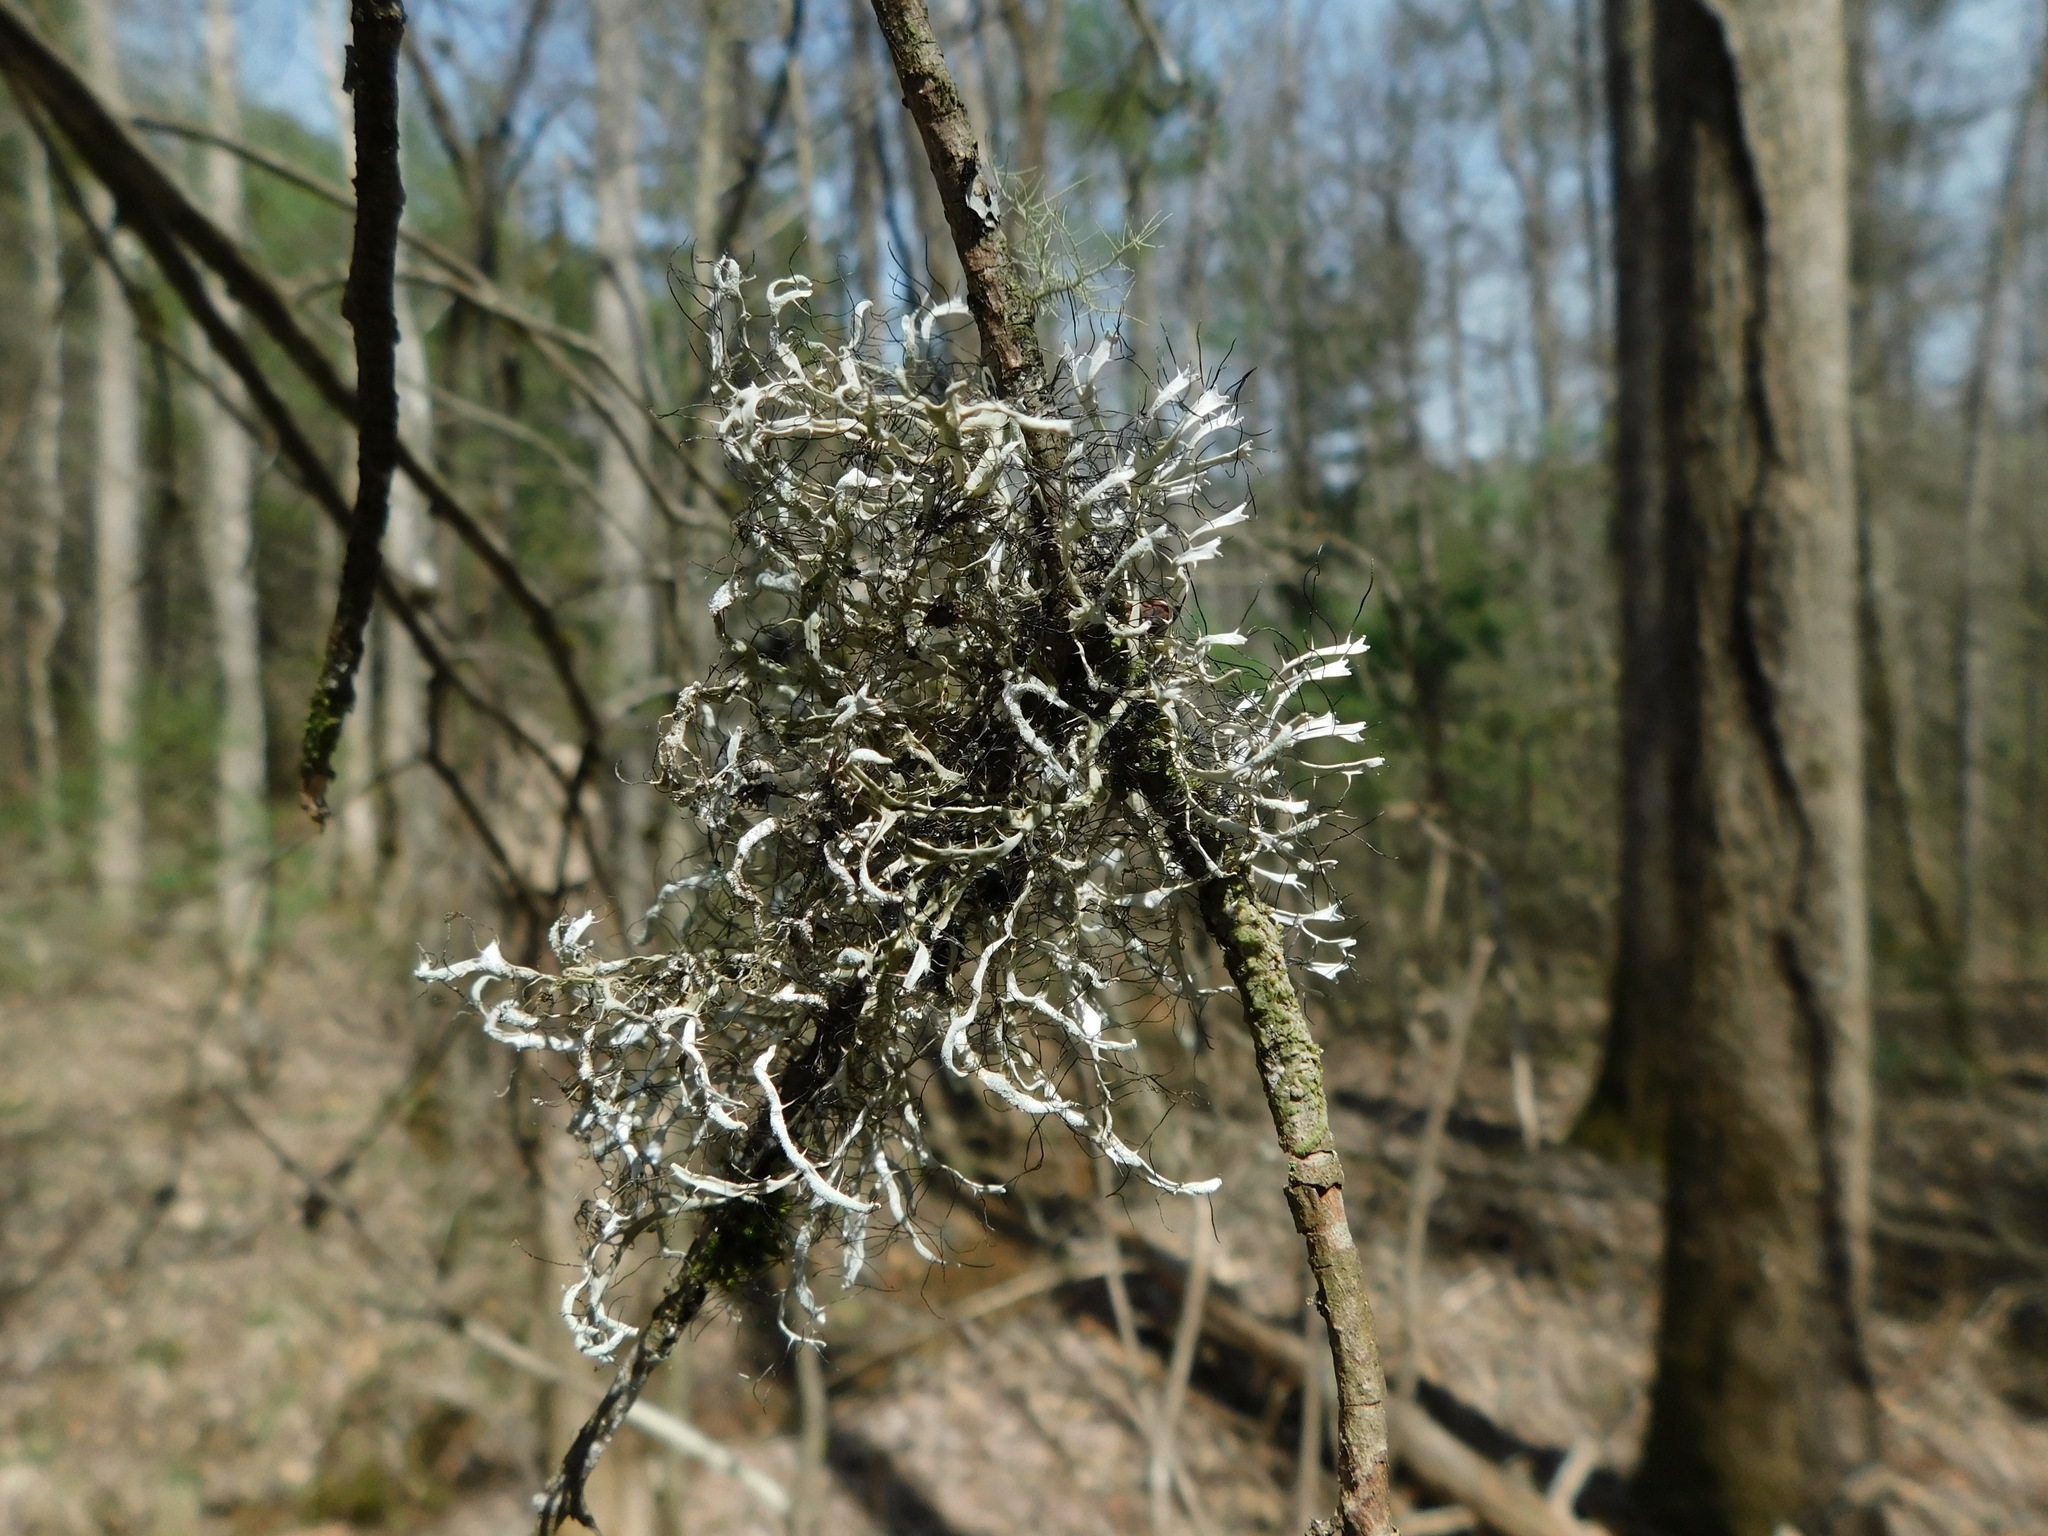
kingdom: Fungi
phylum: Ascomycota
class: Lecanoromycetes
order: Caliciales
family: Physciaceae
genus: Leucodermia
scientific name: Leucodermia leucomelos
